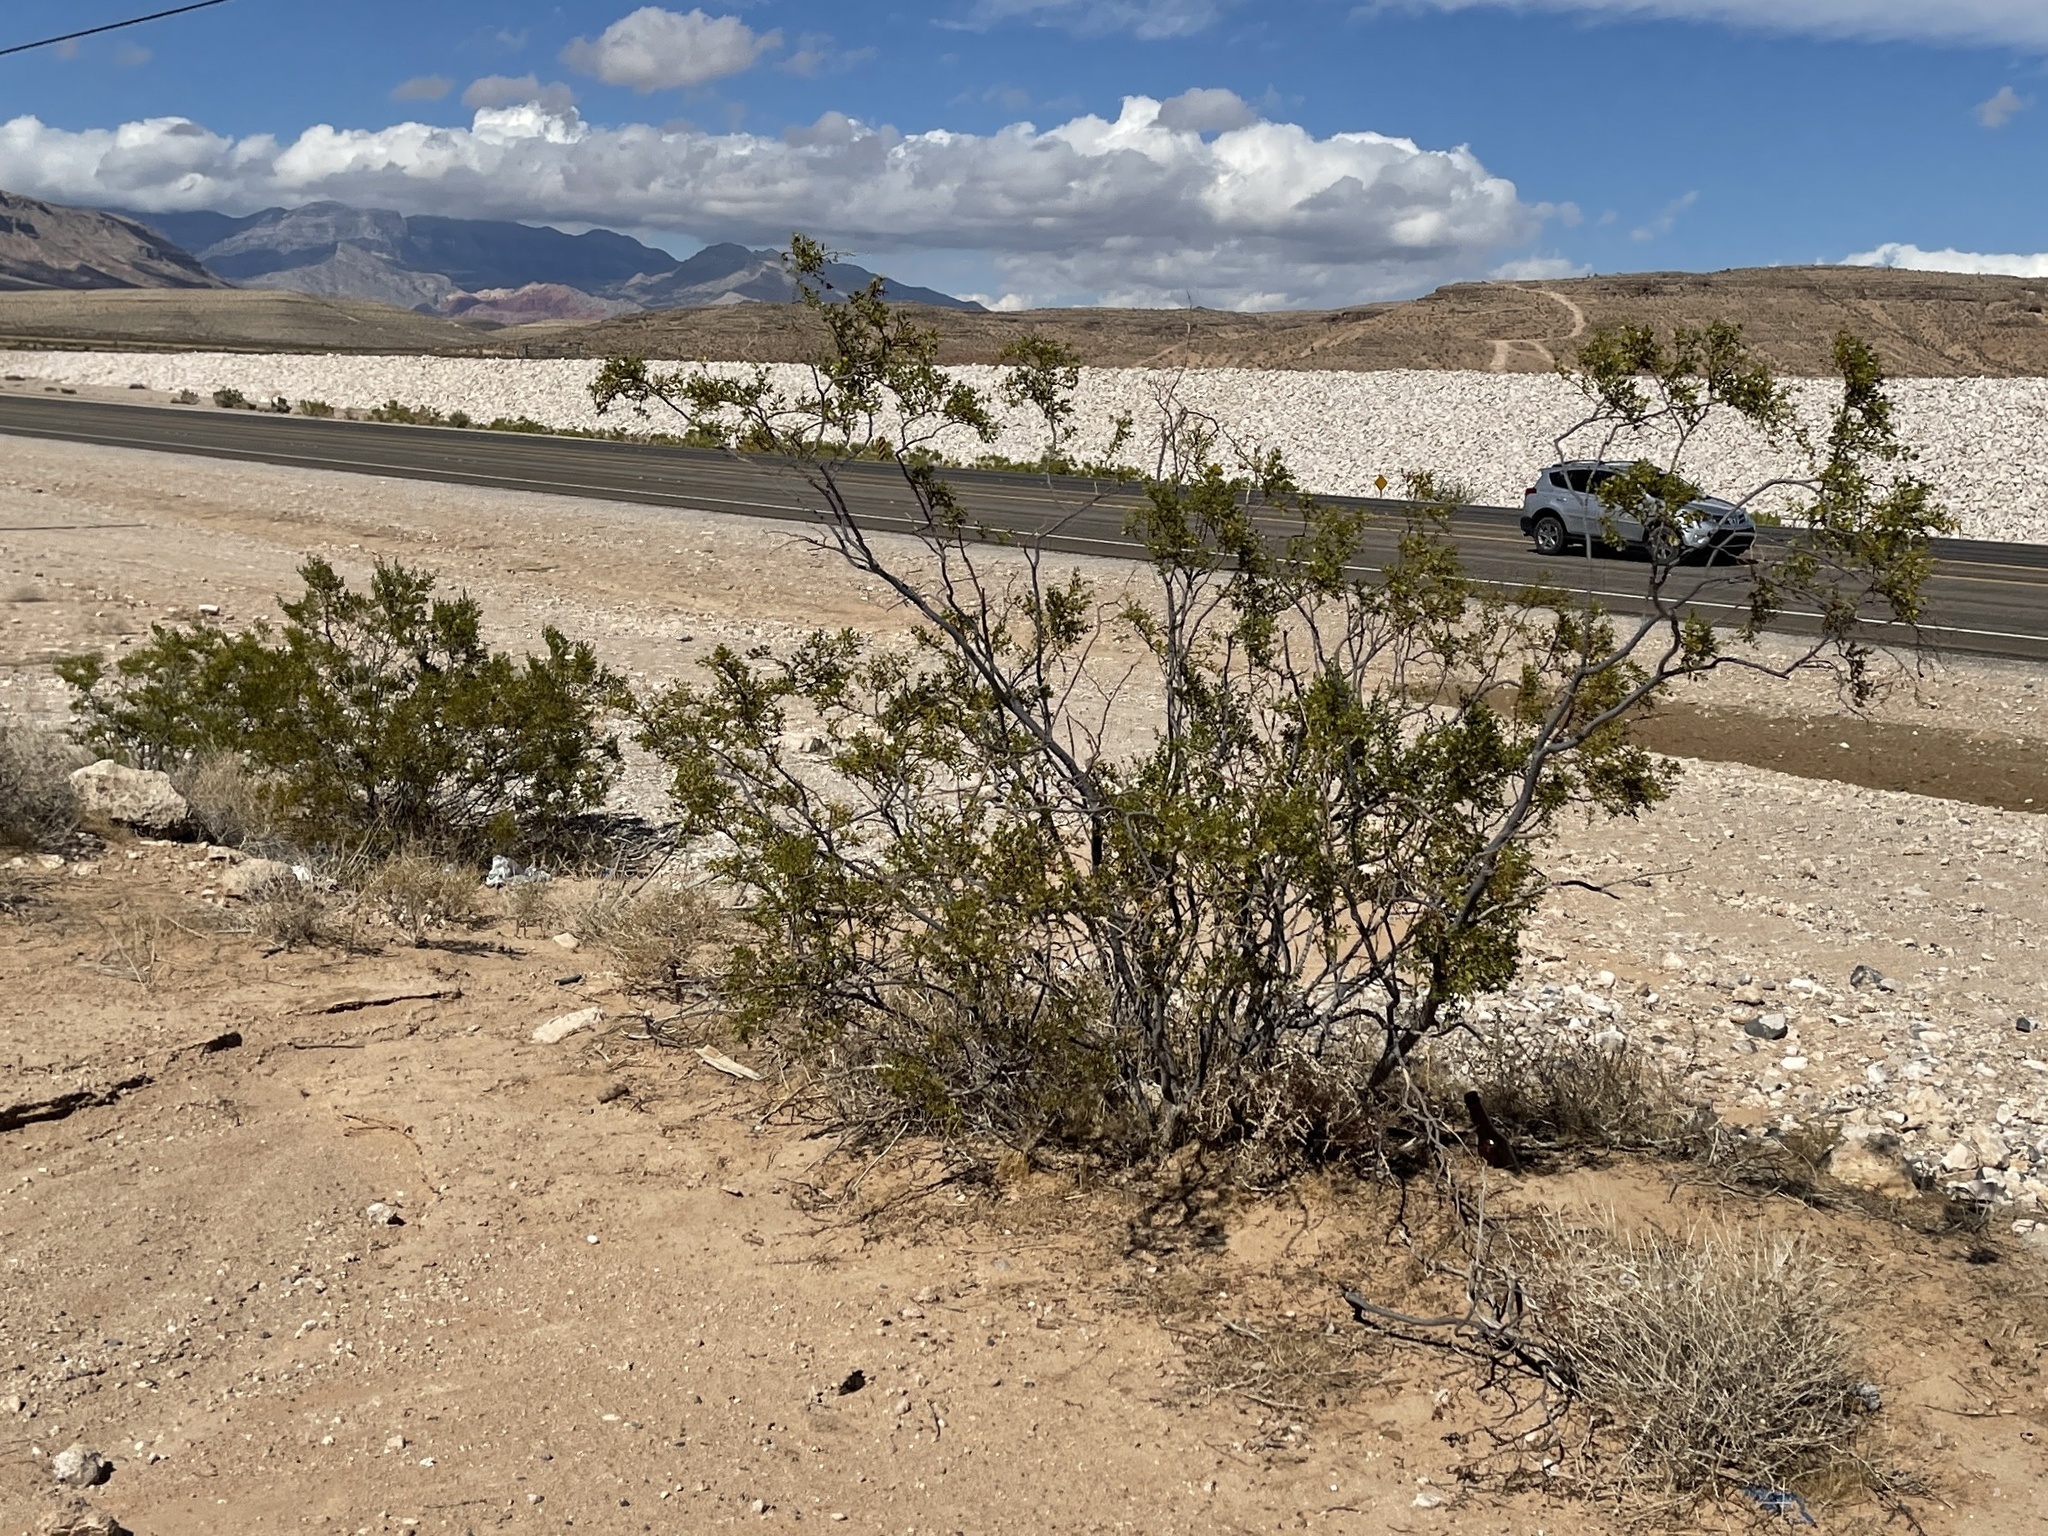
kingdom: Plantae
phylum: Tracheophyta
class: Magnoliopsida
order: Zygophyllales
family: Zygophyllaceae
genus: Larrea
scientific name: Larrea tridentata
